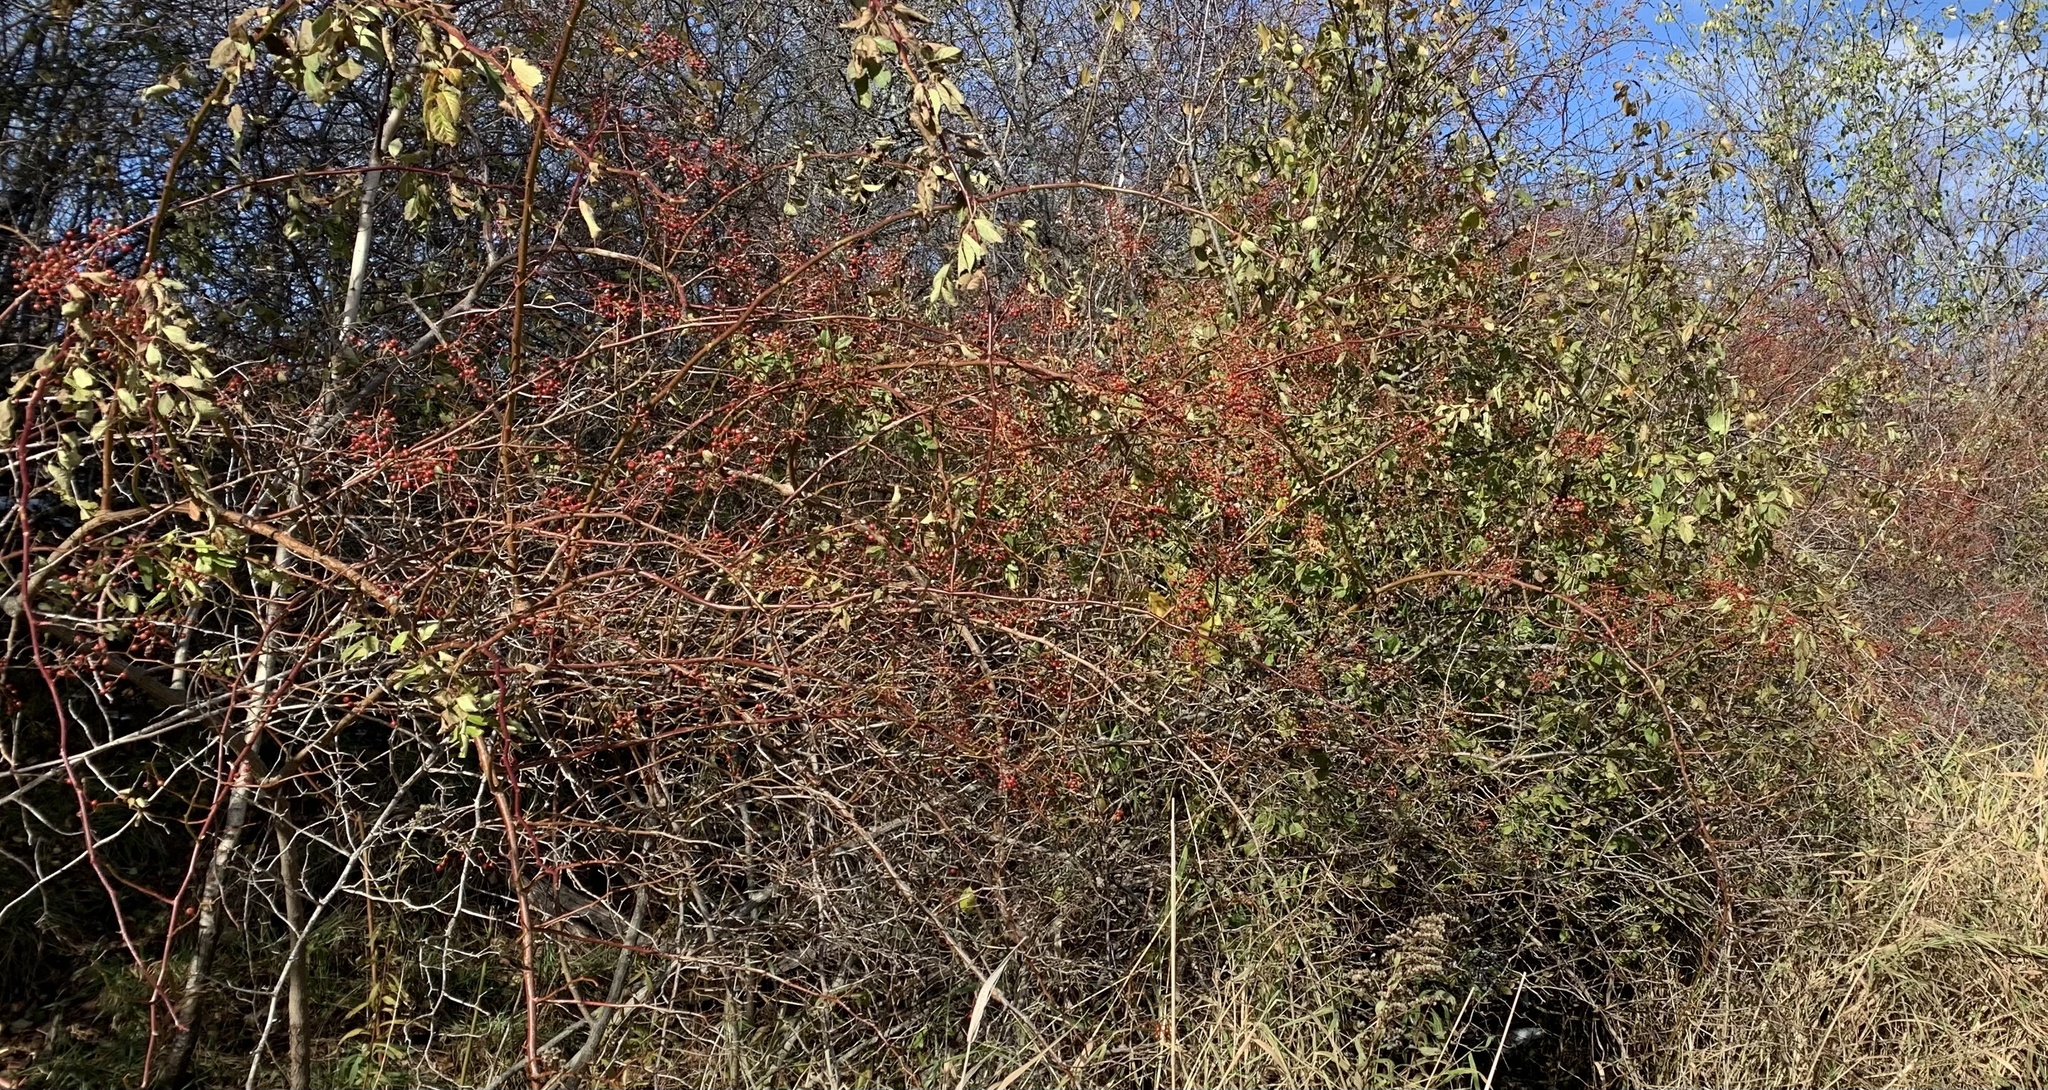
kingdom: Plantae
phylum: Tracheophyta
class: Magnoliopsida
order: Rosales
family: Rosaceae
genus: Rosa
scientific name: Rosa multiflora
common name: Multiflora rose
